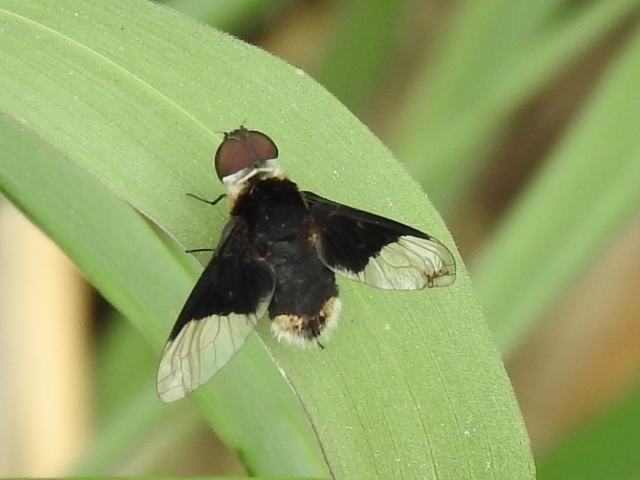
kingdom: Animalia
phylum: Arthropoda
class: Insecta
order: Diptera
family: Bombyliidae
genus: Ins
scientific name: Ins celeris
